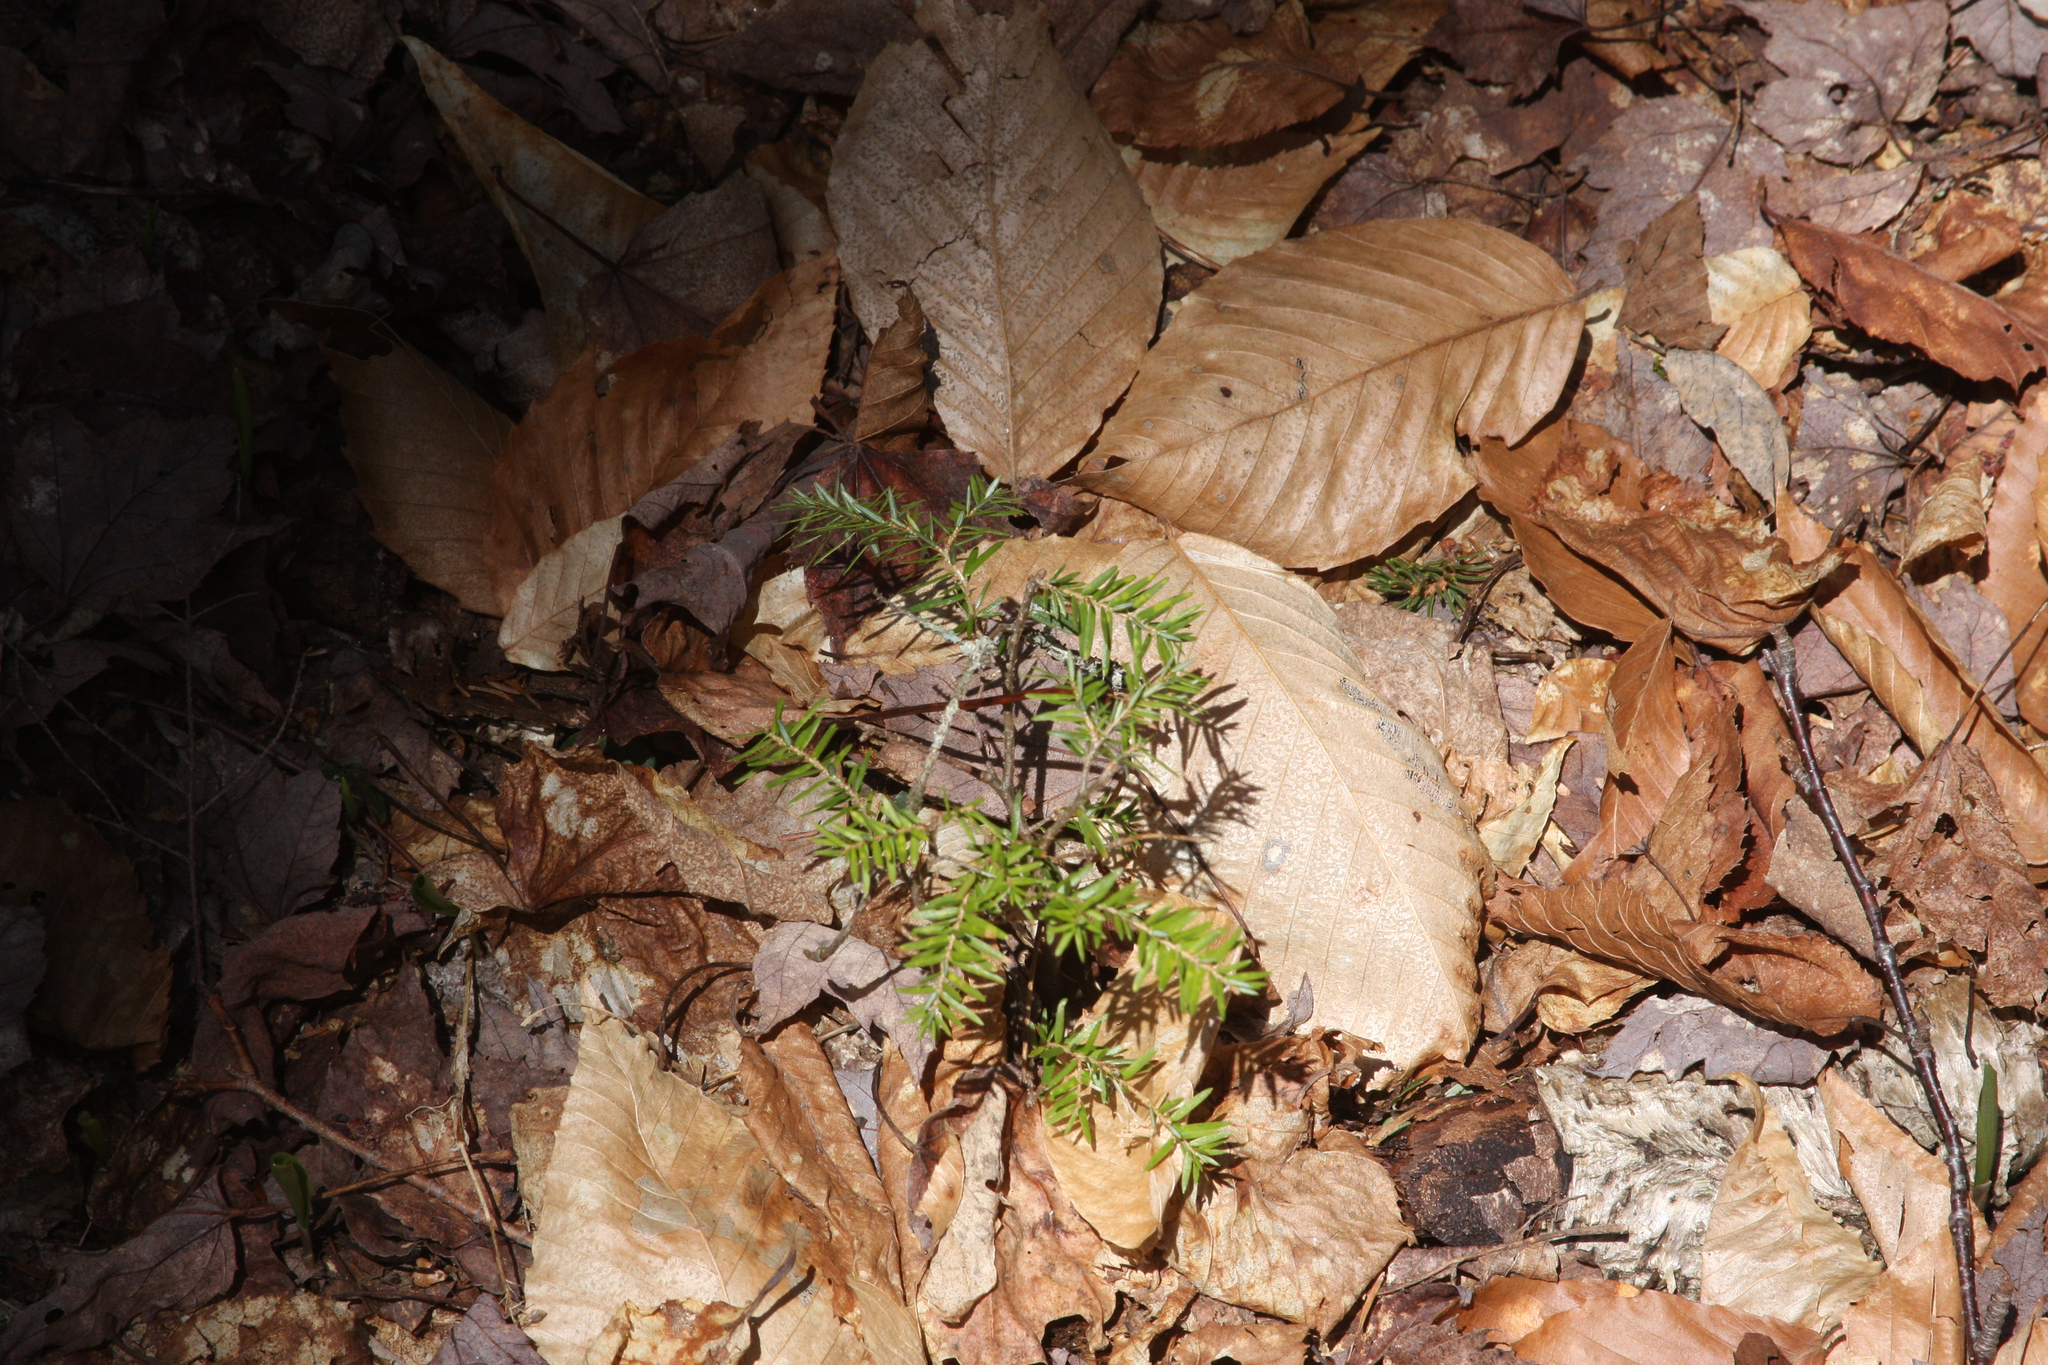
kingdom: Plantae
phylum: Tracheophyta
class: Pinopsida
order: Pinales
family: Pinaceae
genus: Tsuga
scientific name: Tsuga canadensis
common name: Eastern hemlock
